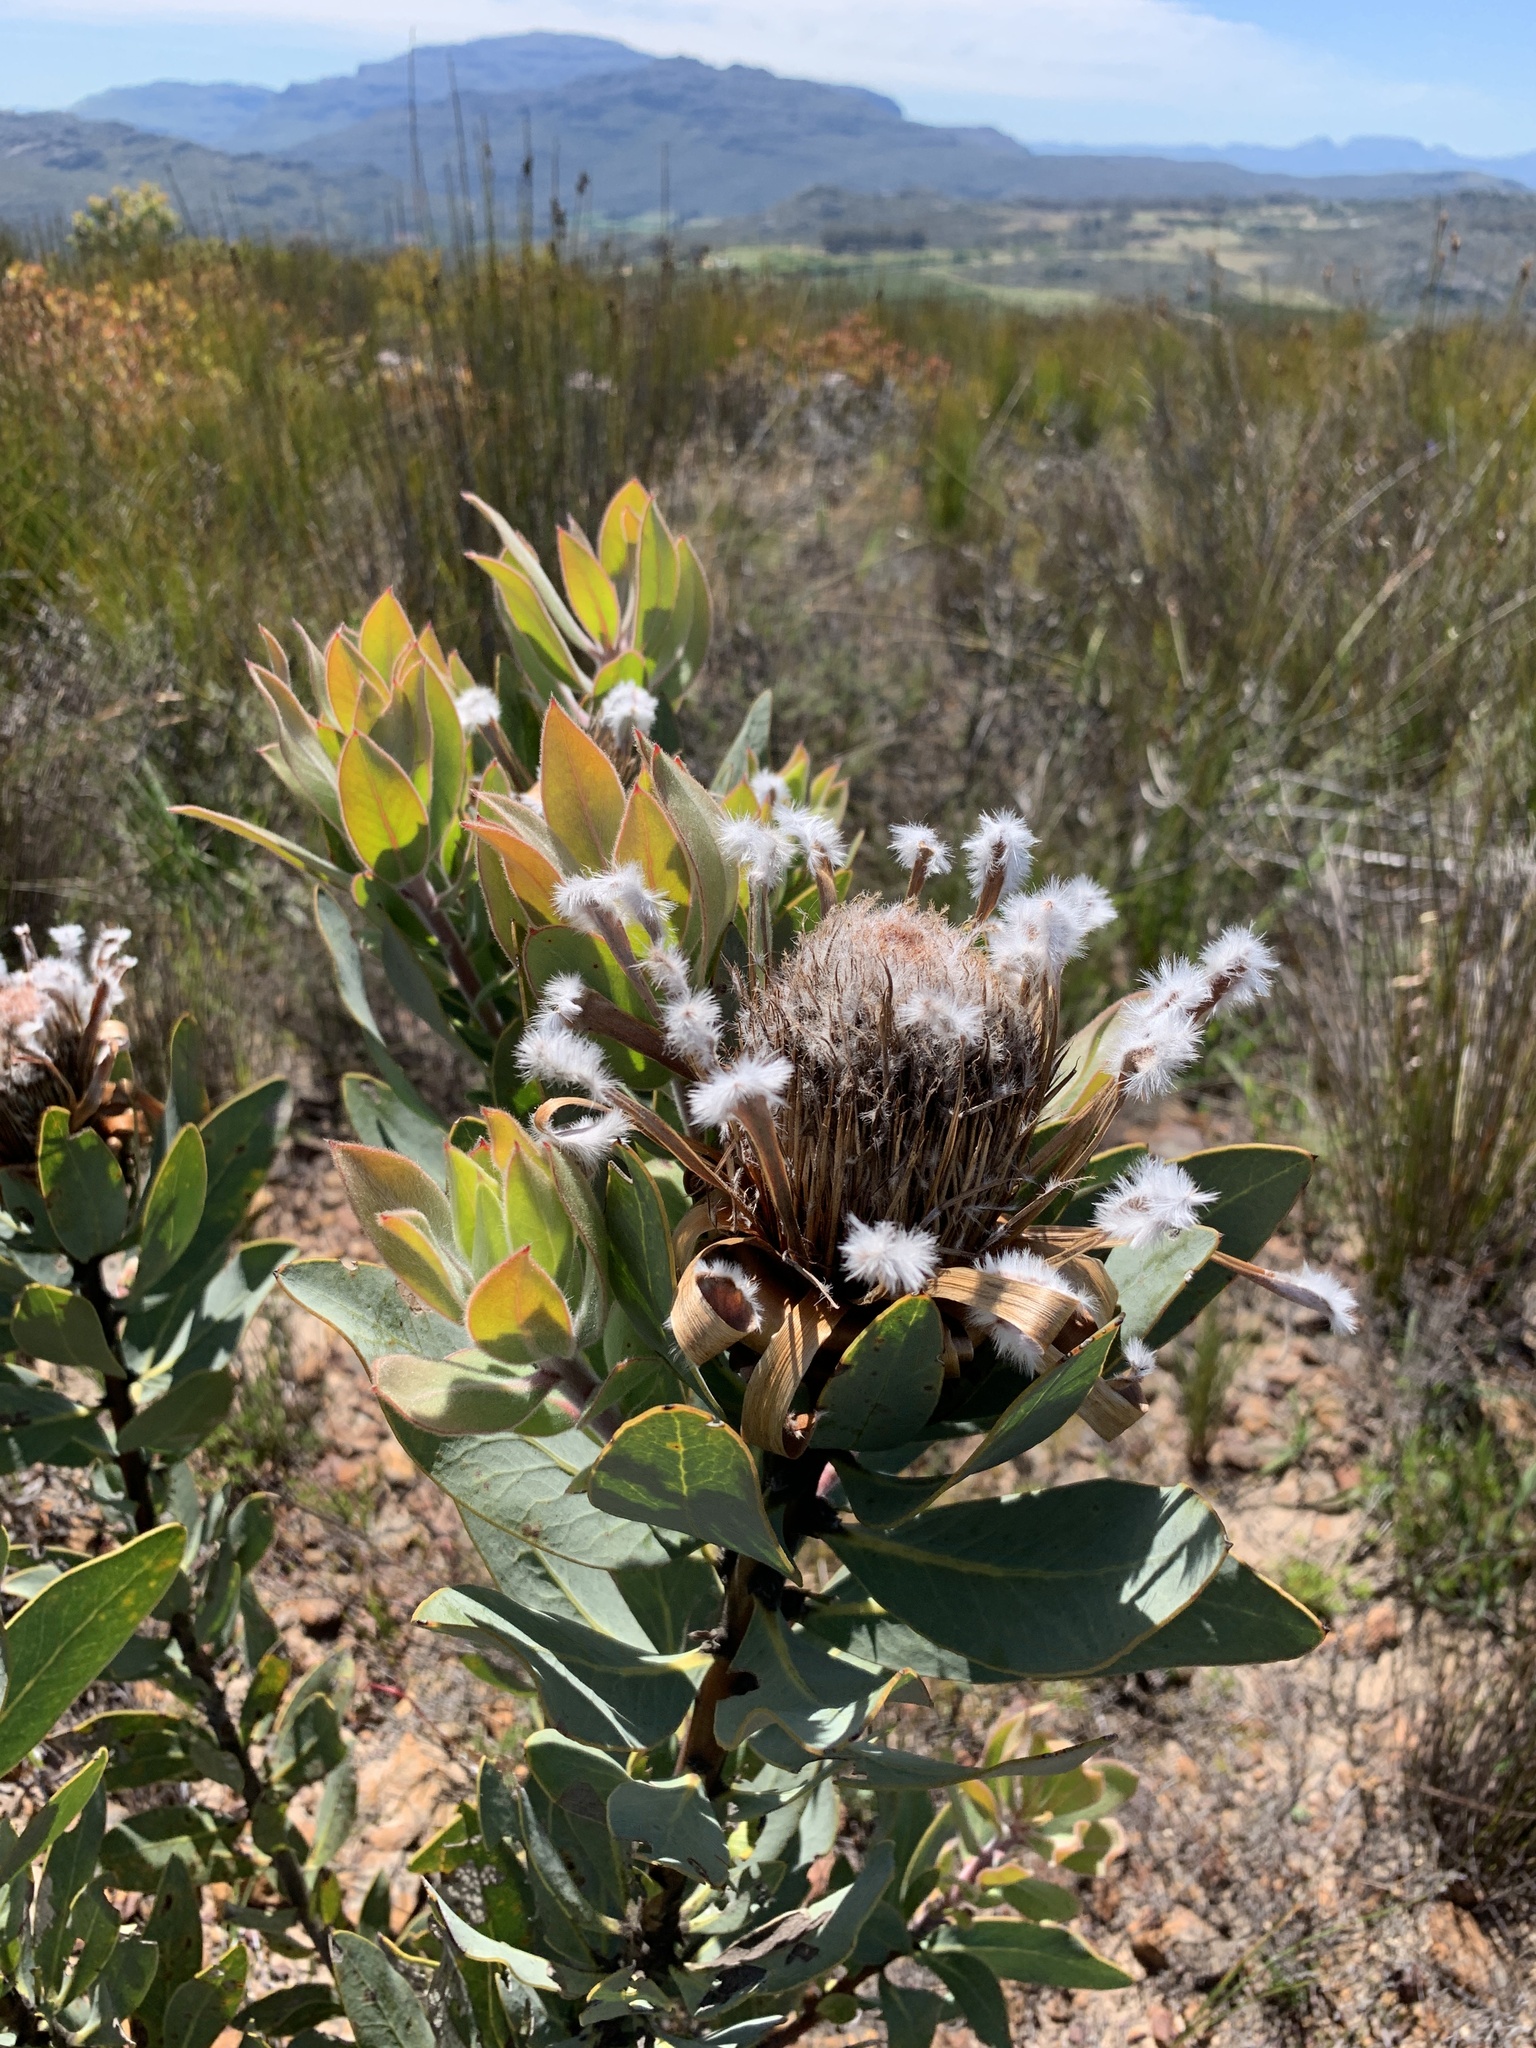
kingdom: Plantae
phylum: Tracheophyta
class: Magnoliopsida
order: Proteales
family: Proteaceae
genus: Protea
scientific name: Protea laurifolia
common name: Grey-leaf sugarbsh
